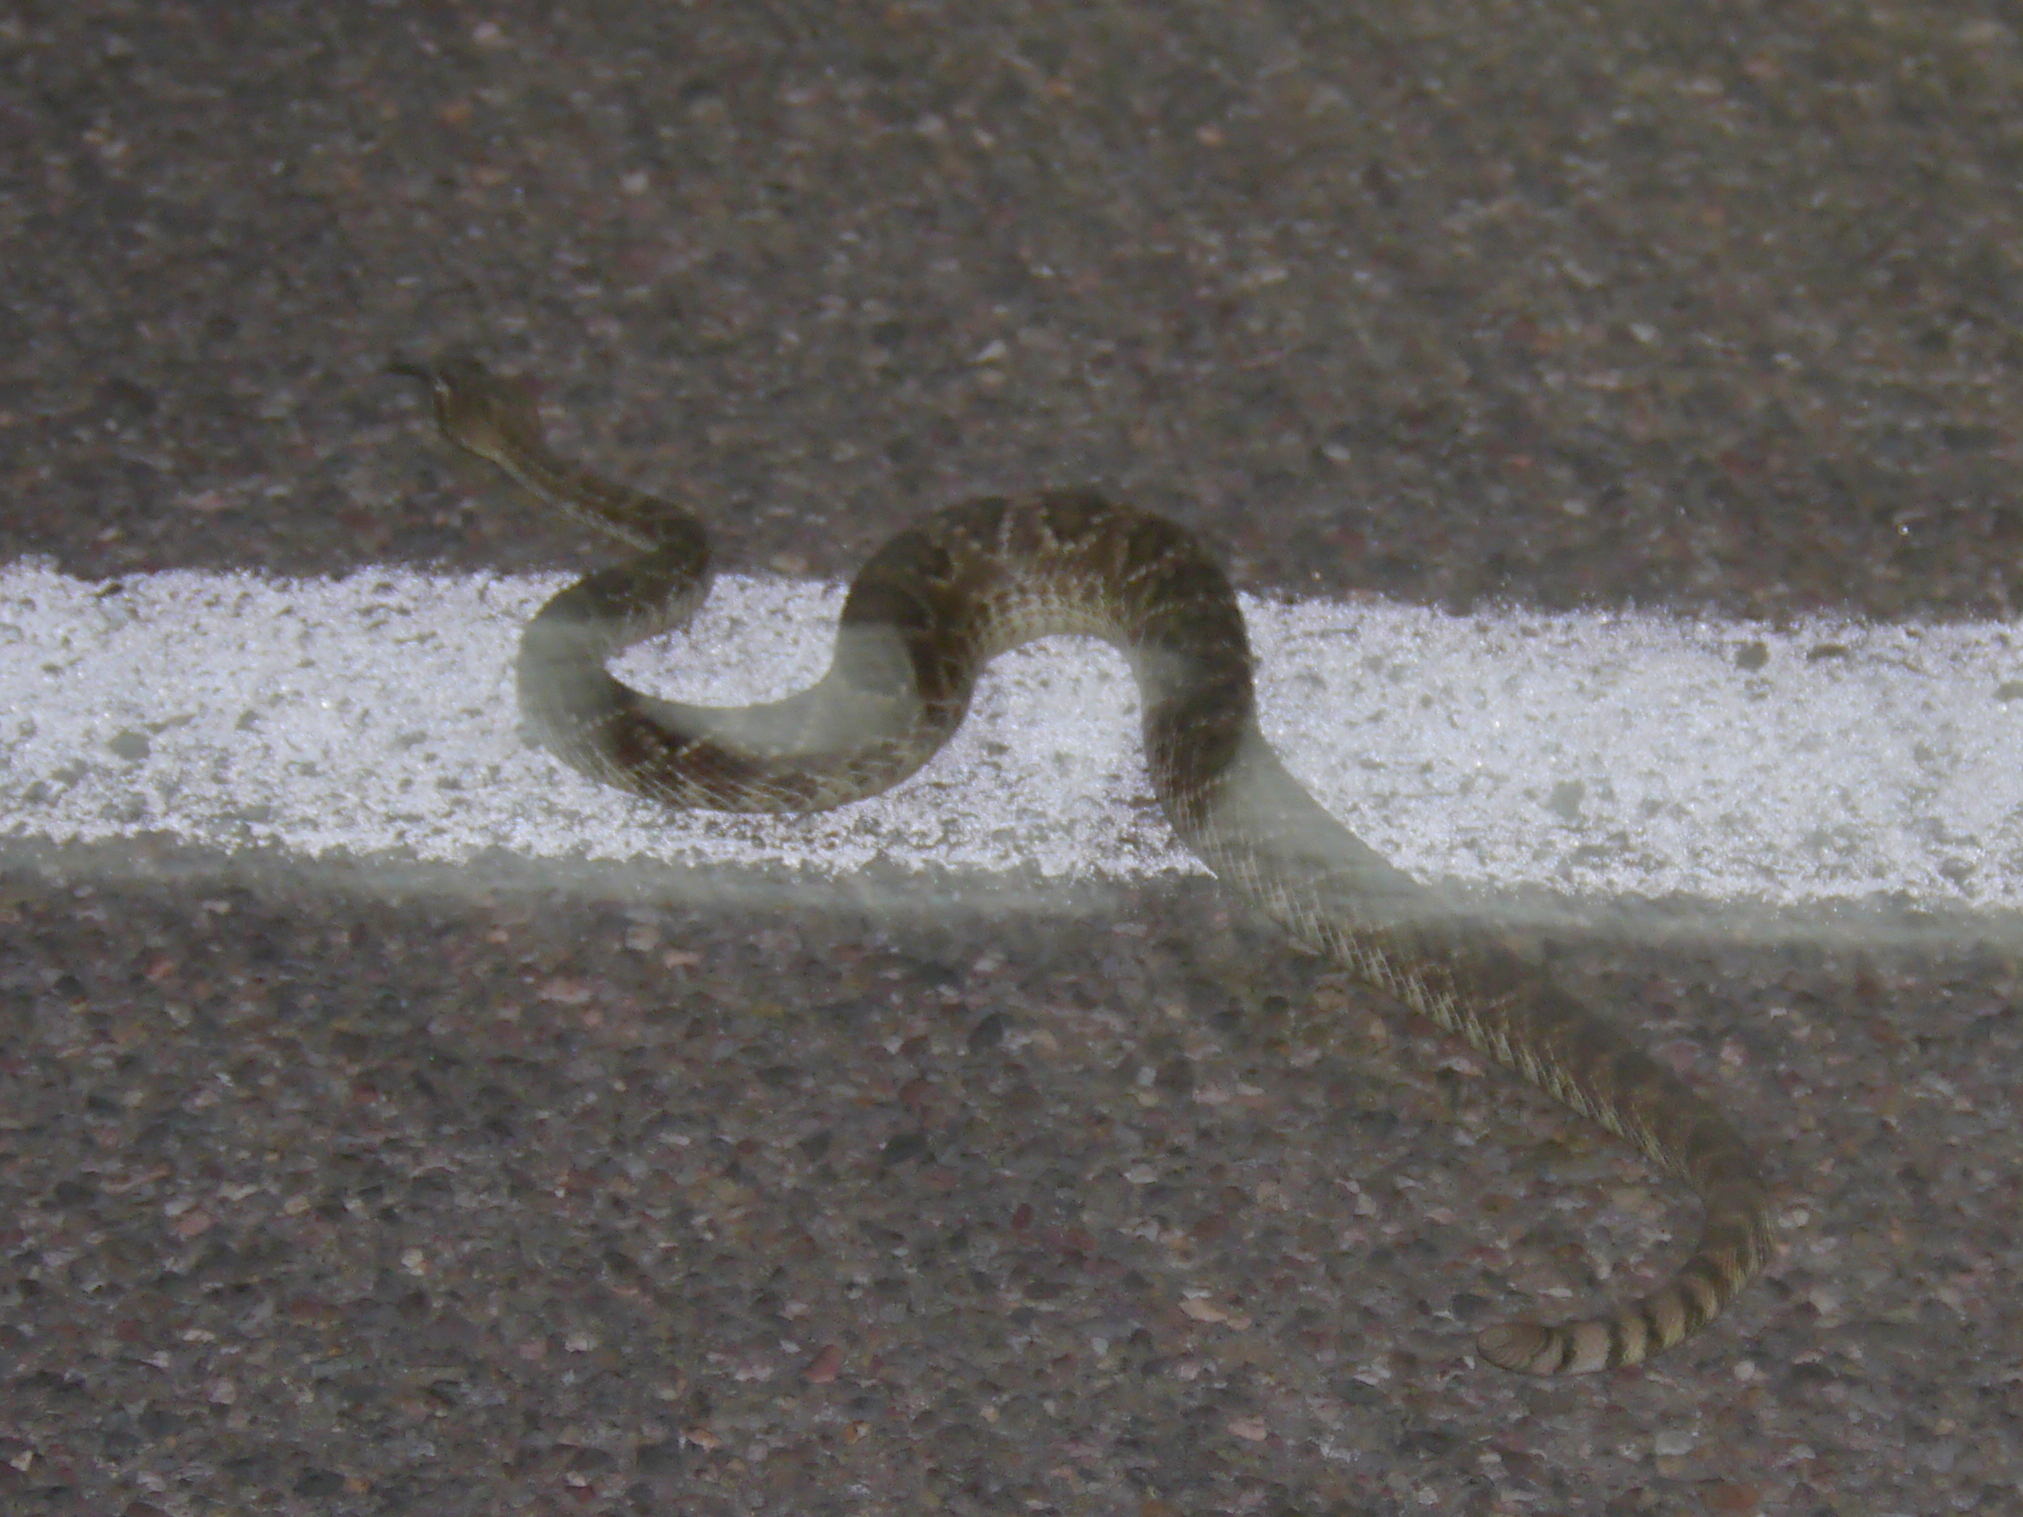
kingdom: Animalia
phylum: Chordata
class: Squamata
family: Viperidae
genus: Crotalus
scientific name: Crotalus scutulatus
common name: Scutulatus
